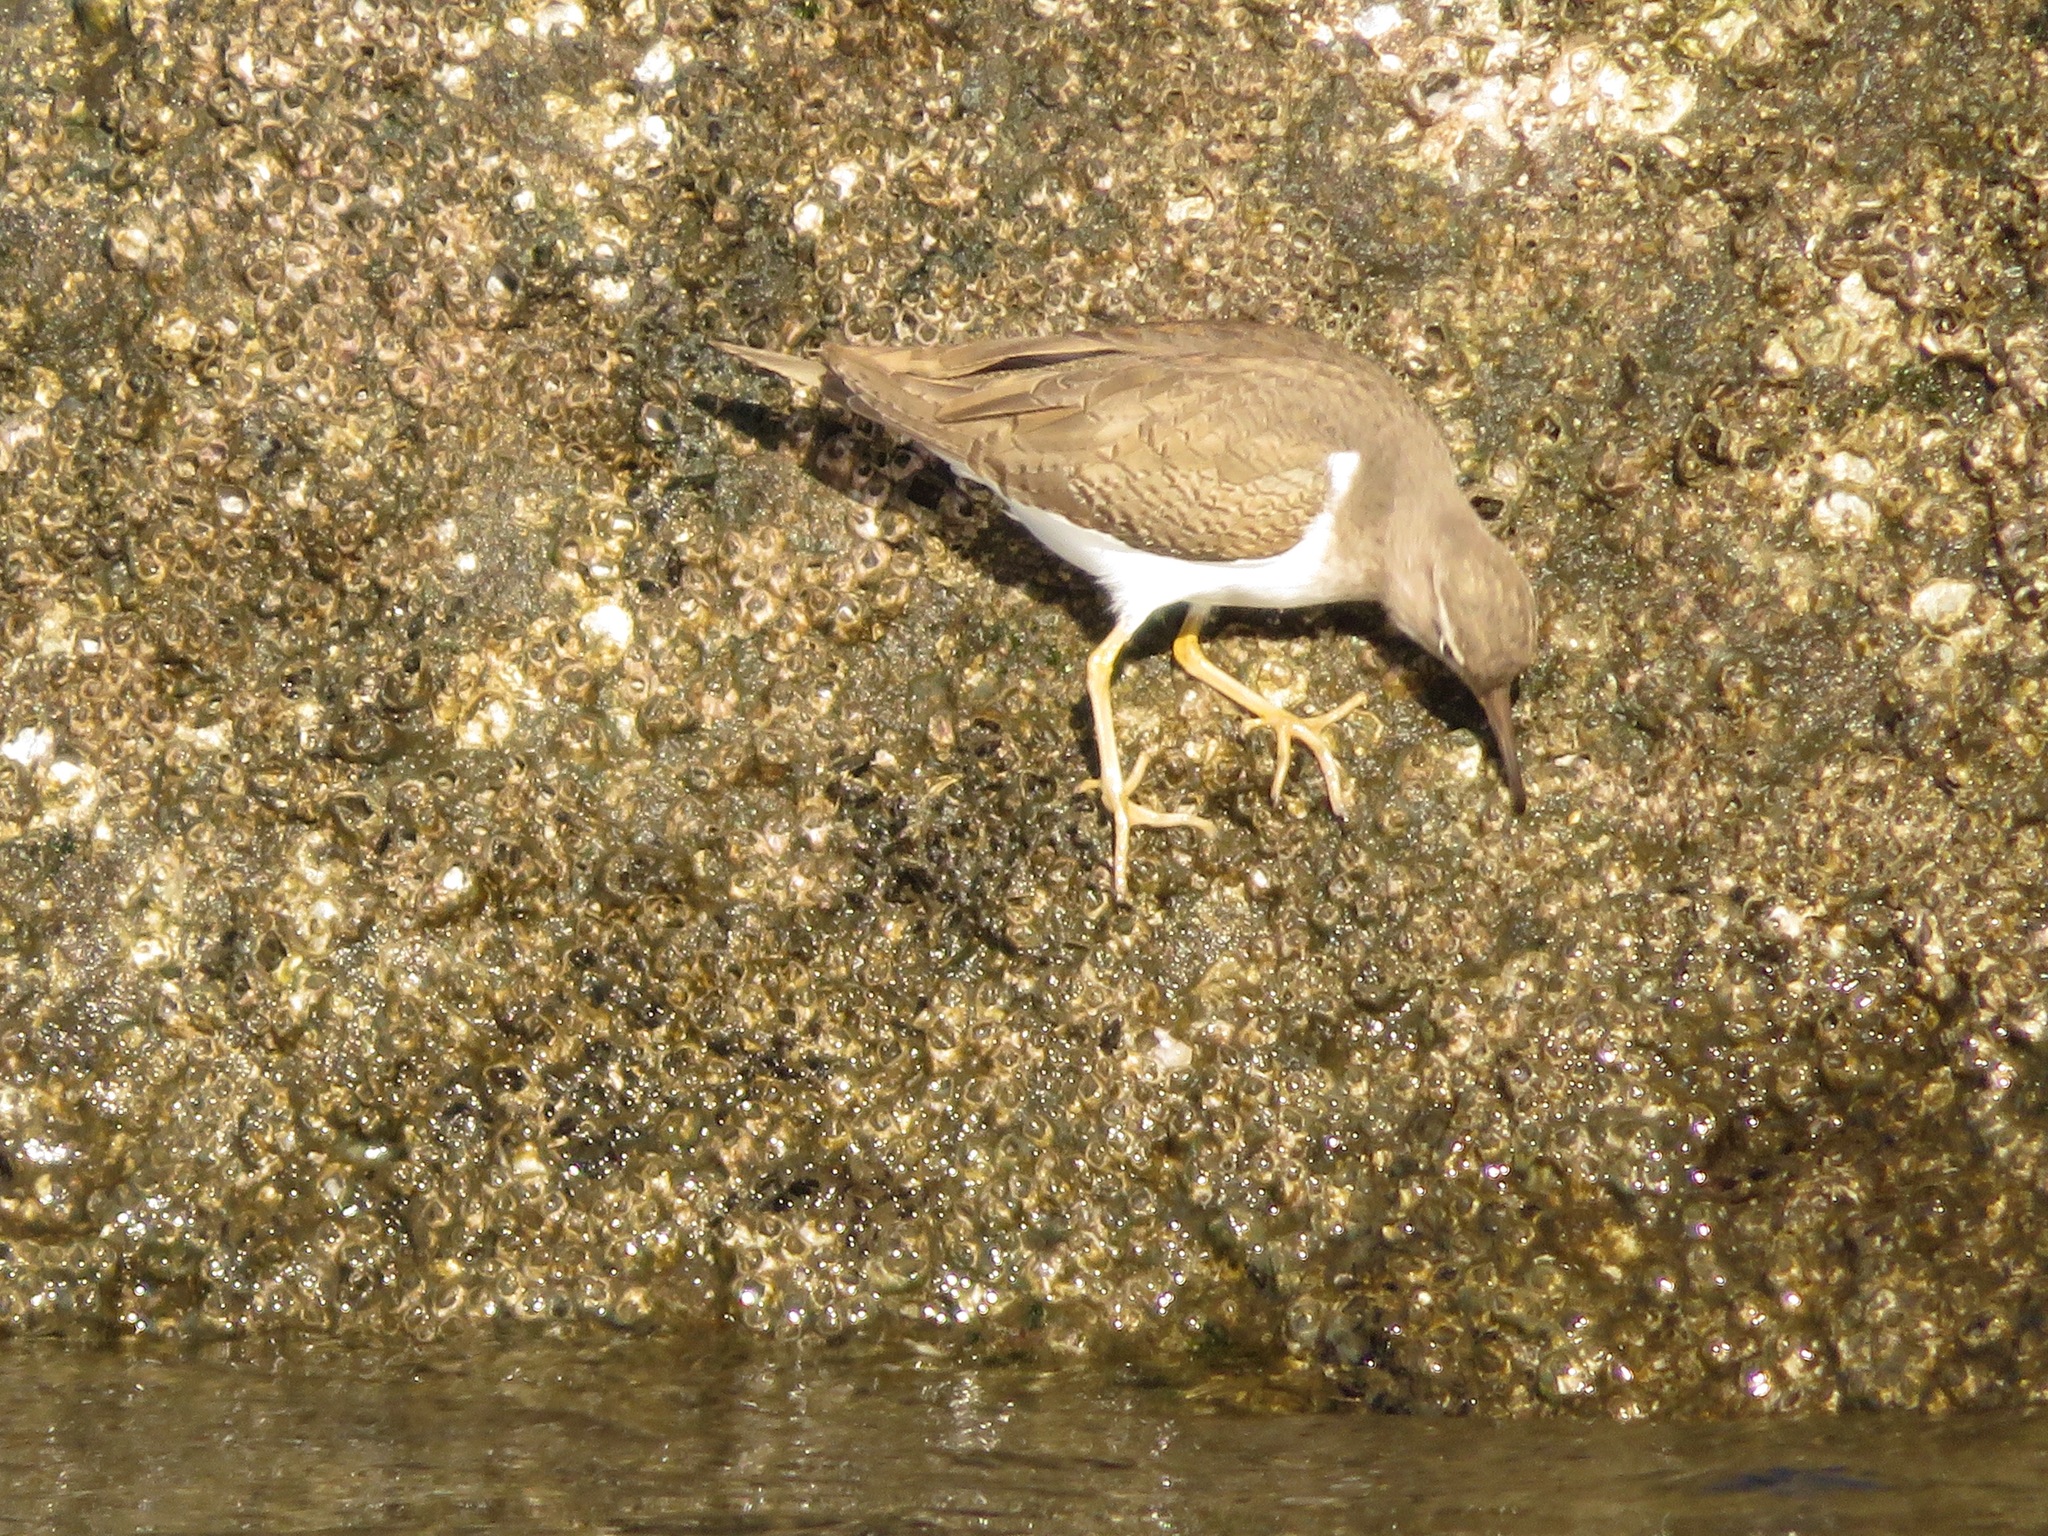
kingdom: Animalia
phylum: Chordata
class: Aves
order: Charadriiformes
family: Scolopacidae
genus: Actitis
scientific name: Actitis hypoleucos
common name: Common sandpiper
